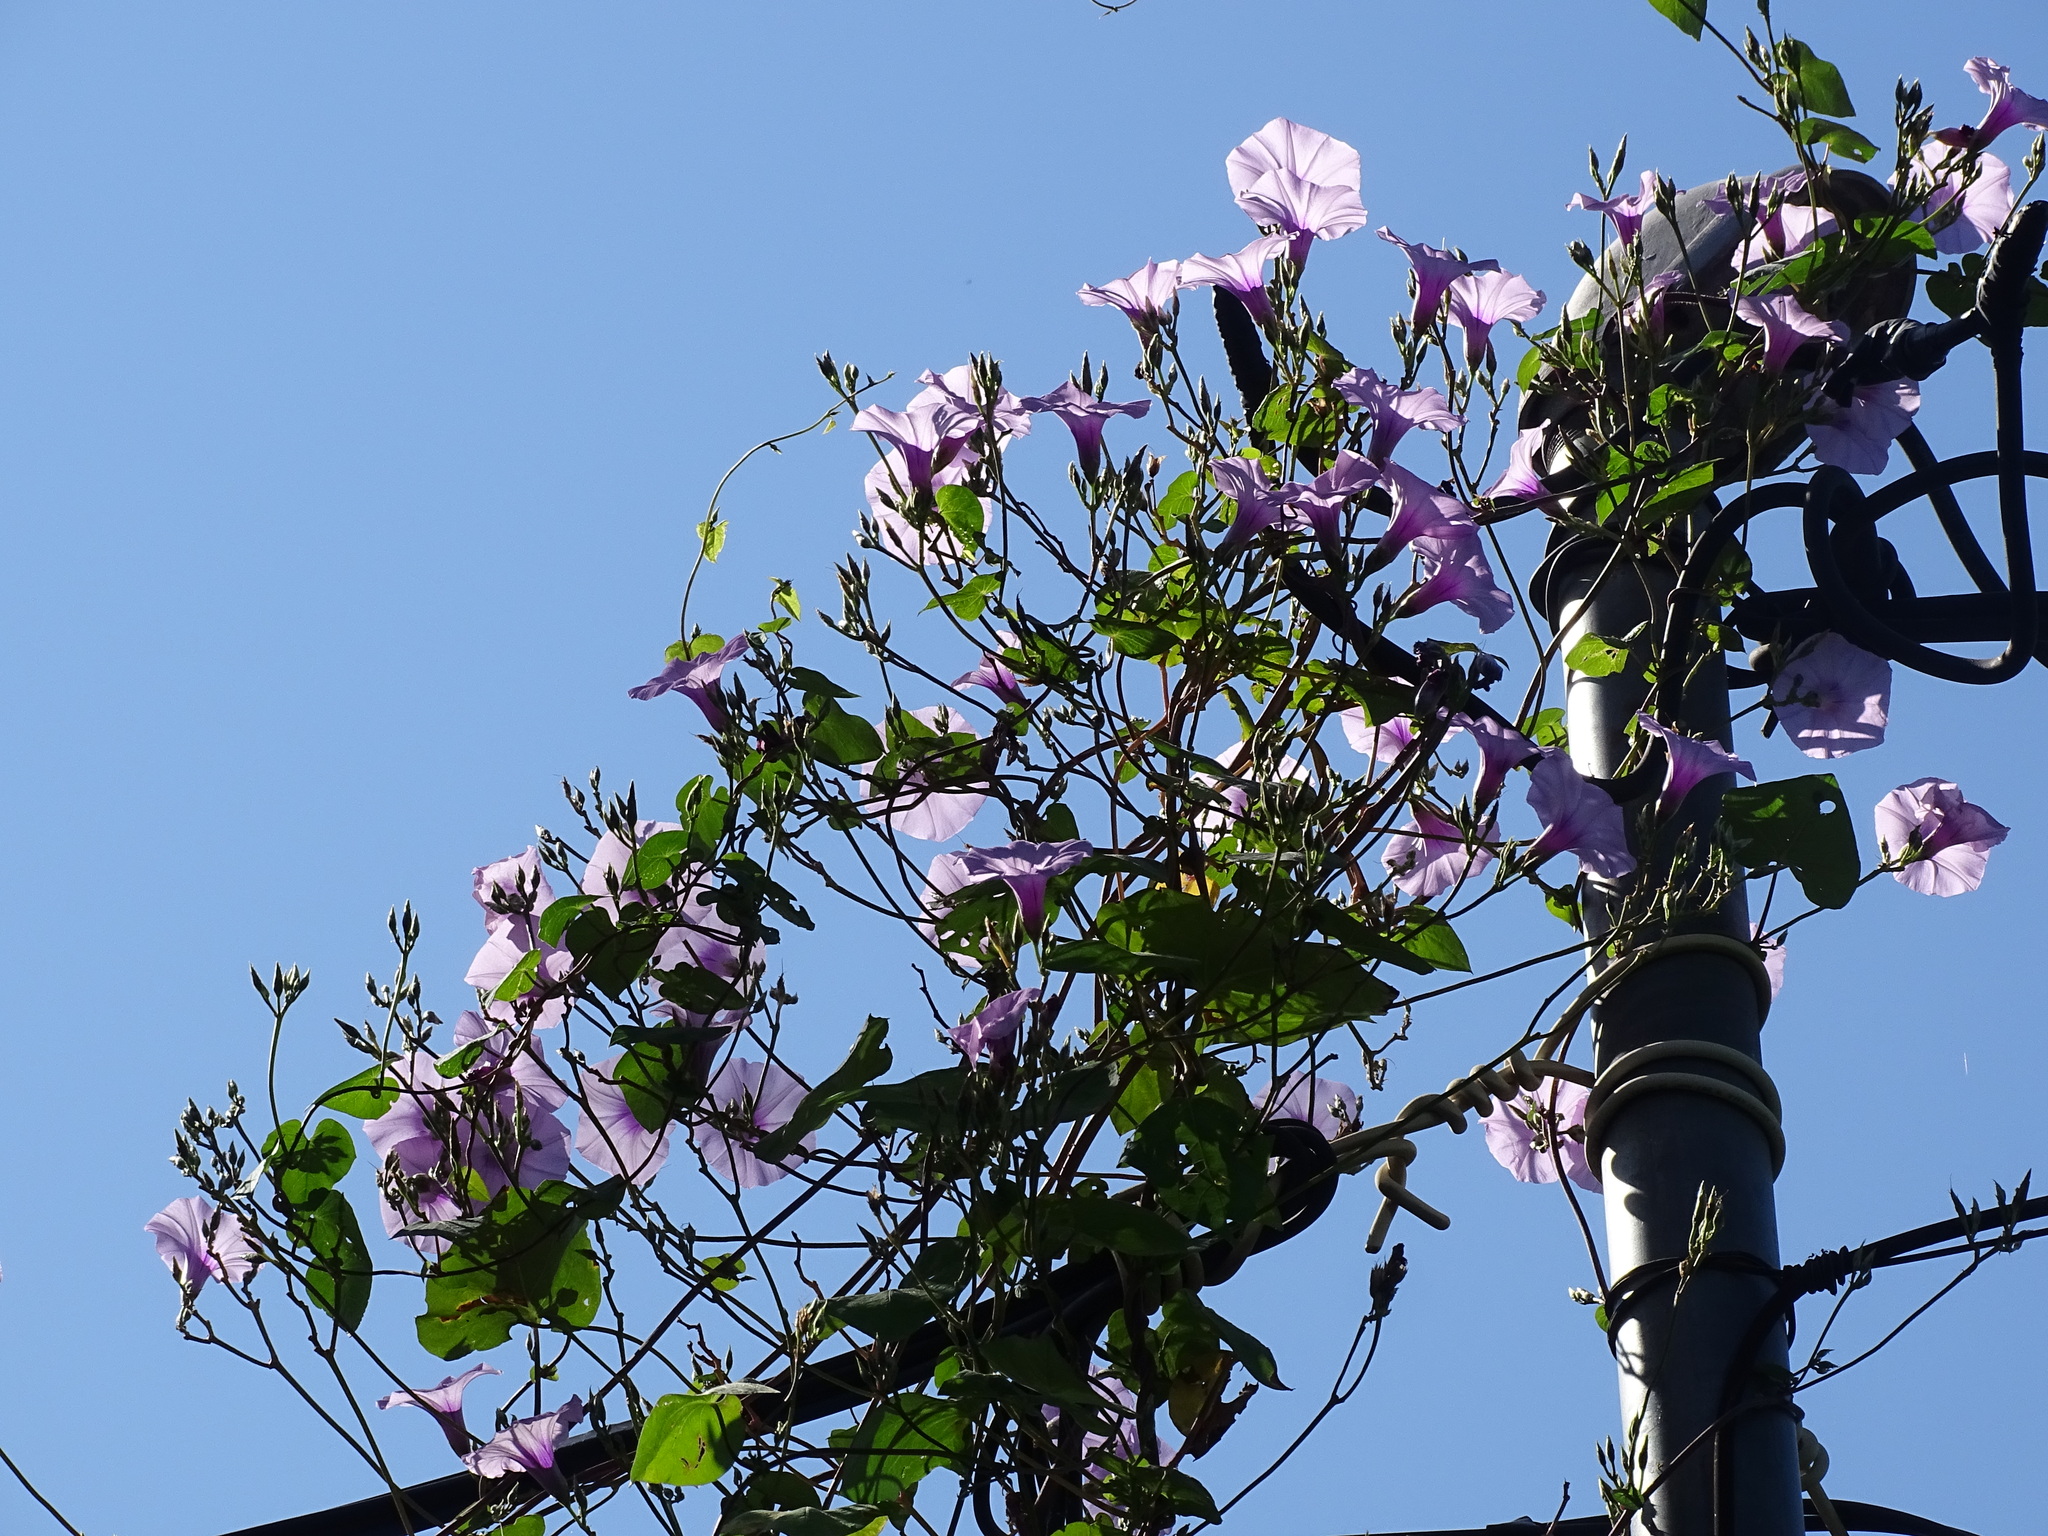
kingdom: Plantae
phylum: Tracheophyta
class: Magnoliopsida
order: Solanales
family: Convolvulaceae
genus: Ipomoea
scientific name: Ipomoea trifida
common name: Cotton morningglory
